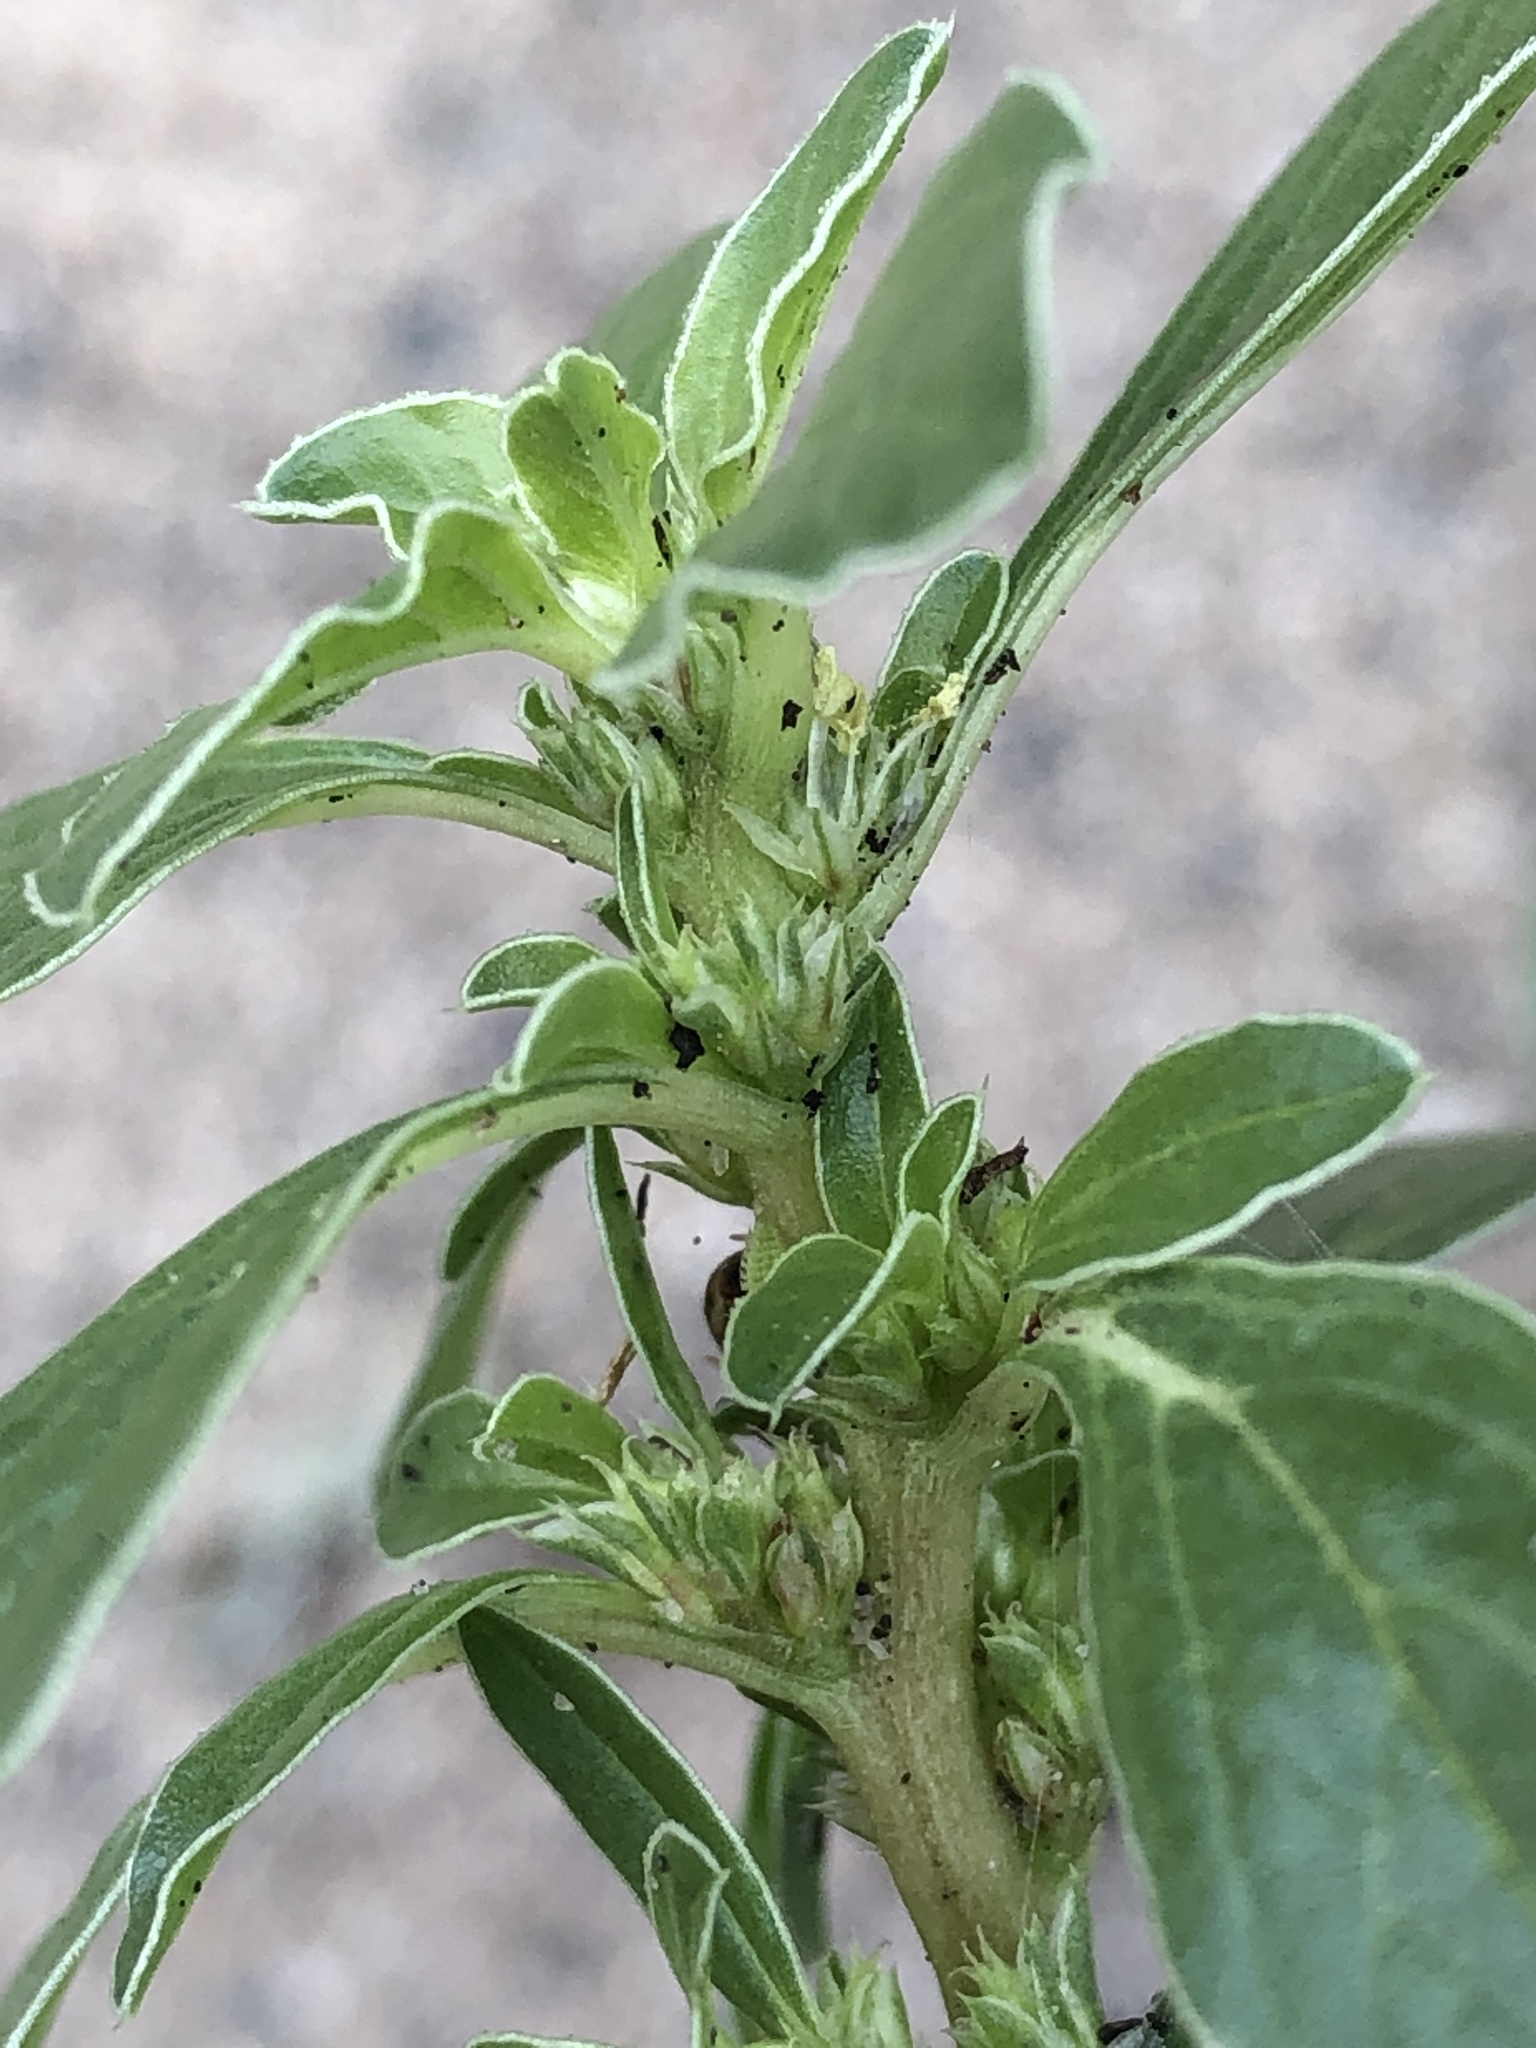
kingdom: Plantae
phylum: Tracheophyta
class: Magnoliopsida
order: Caryophyllales
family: Amaranthaceae
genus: Amaranthus
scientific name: Amaranthus blitoides
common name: Prostrate pigweed
